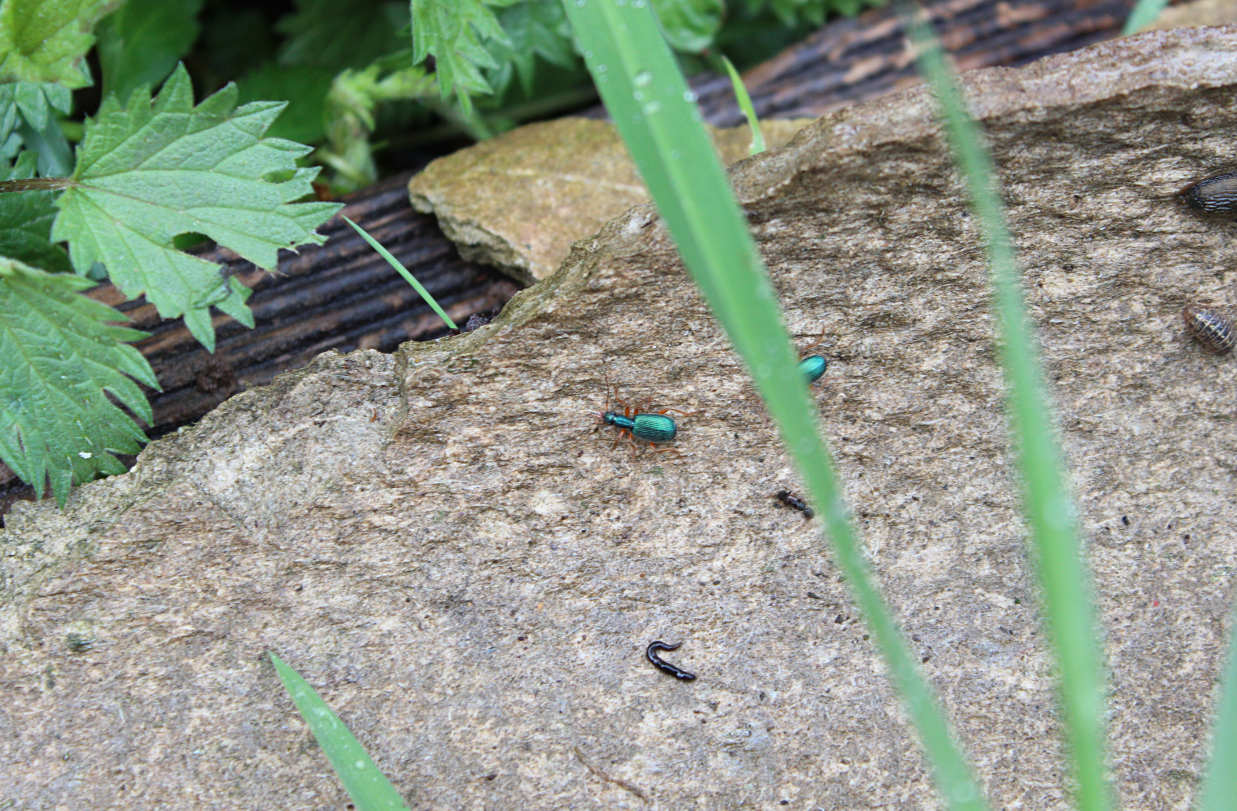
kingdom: Animalia
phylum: Arthropoda
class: Insecta
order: Coleoptera
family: Carabidae
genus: Drypta
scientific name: Drypta dentata
